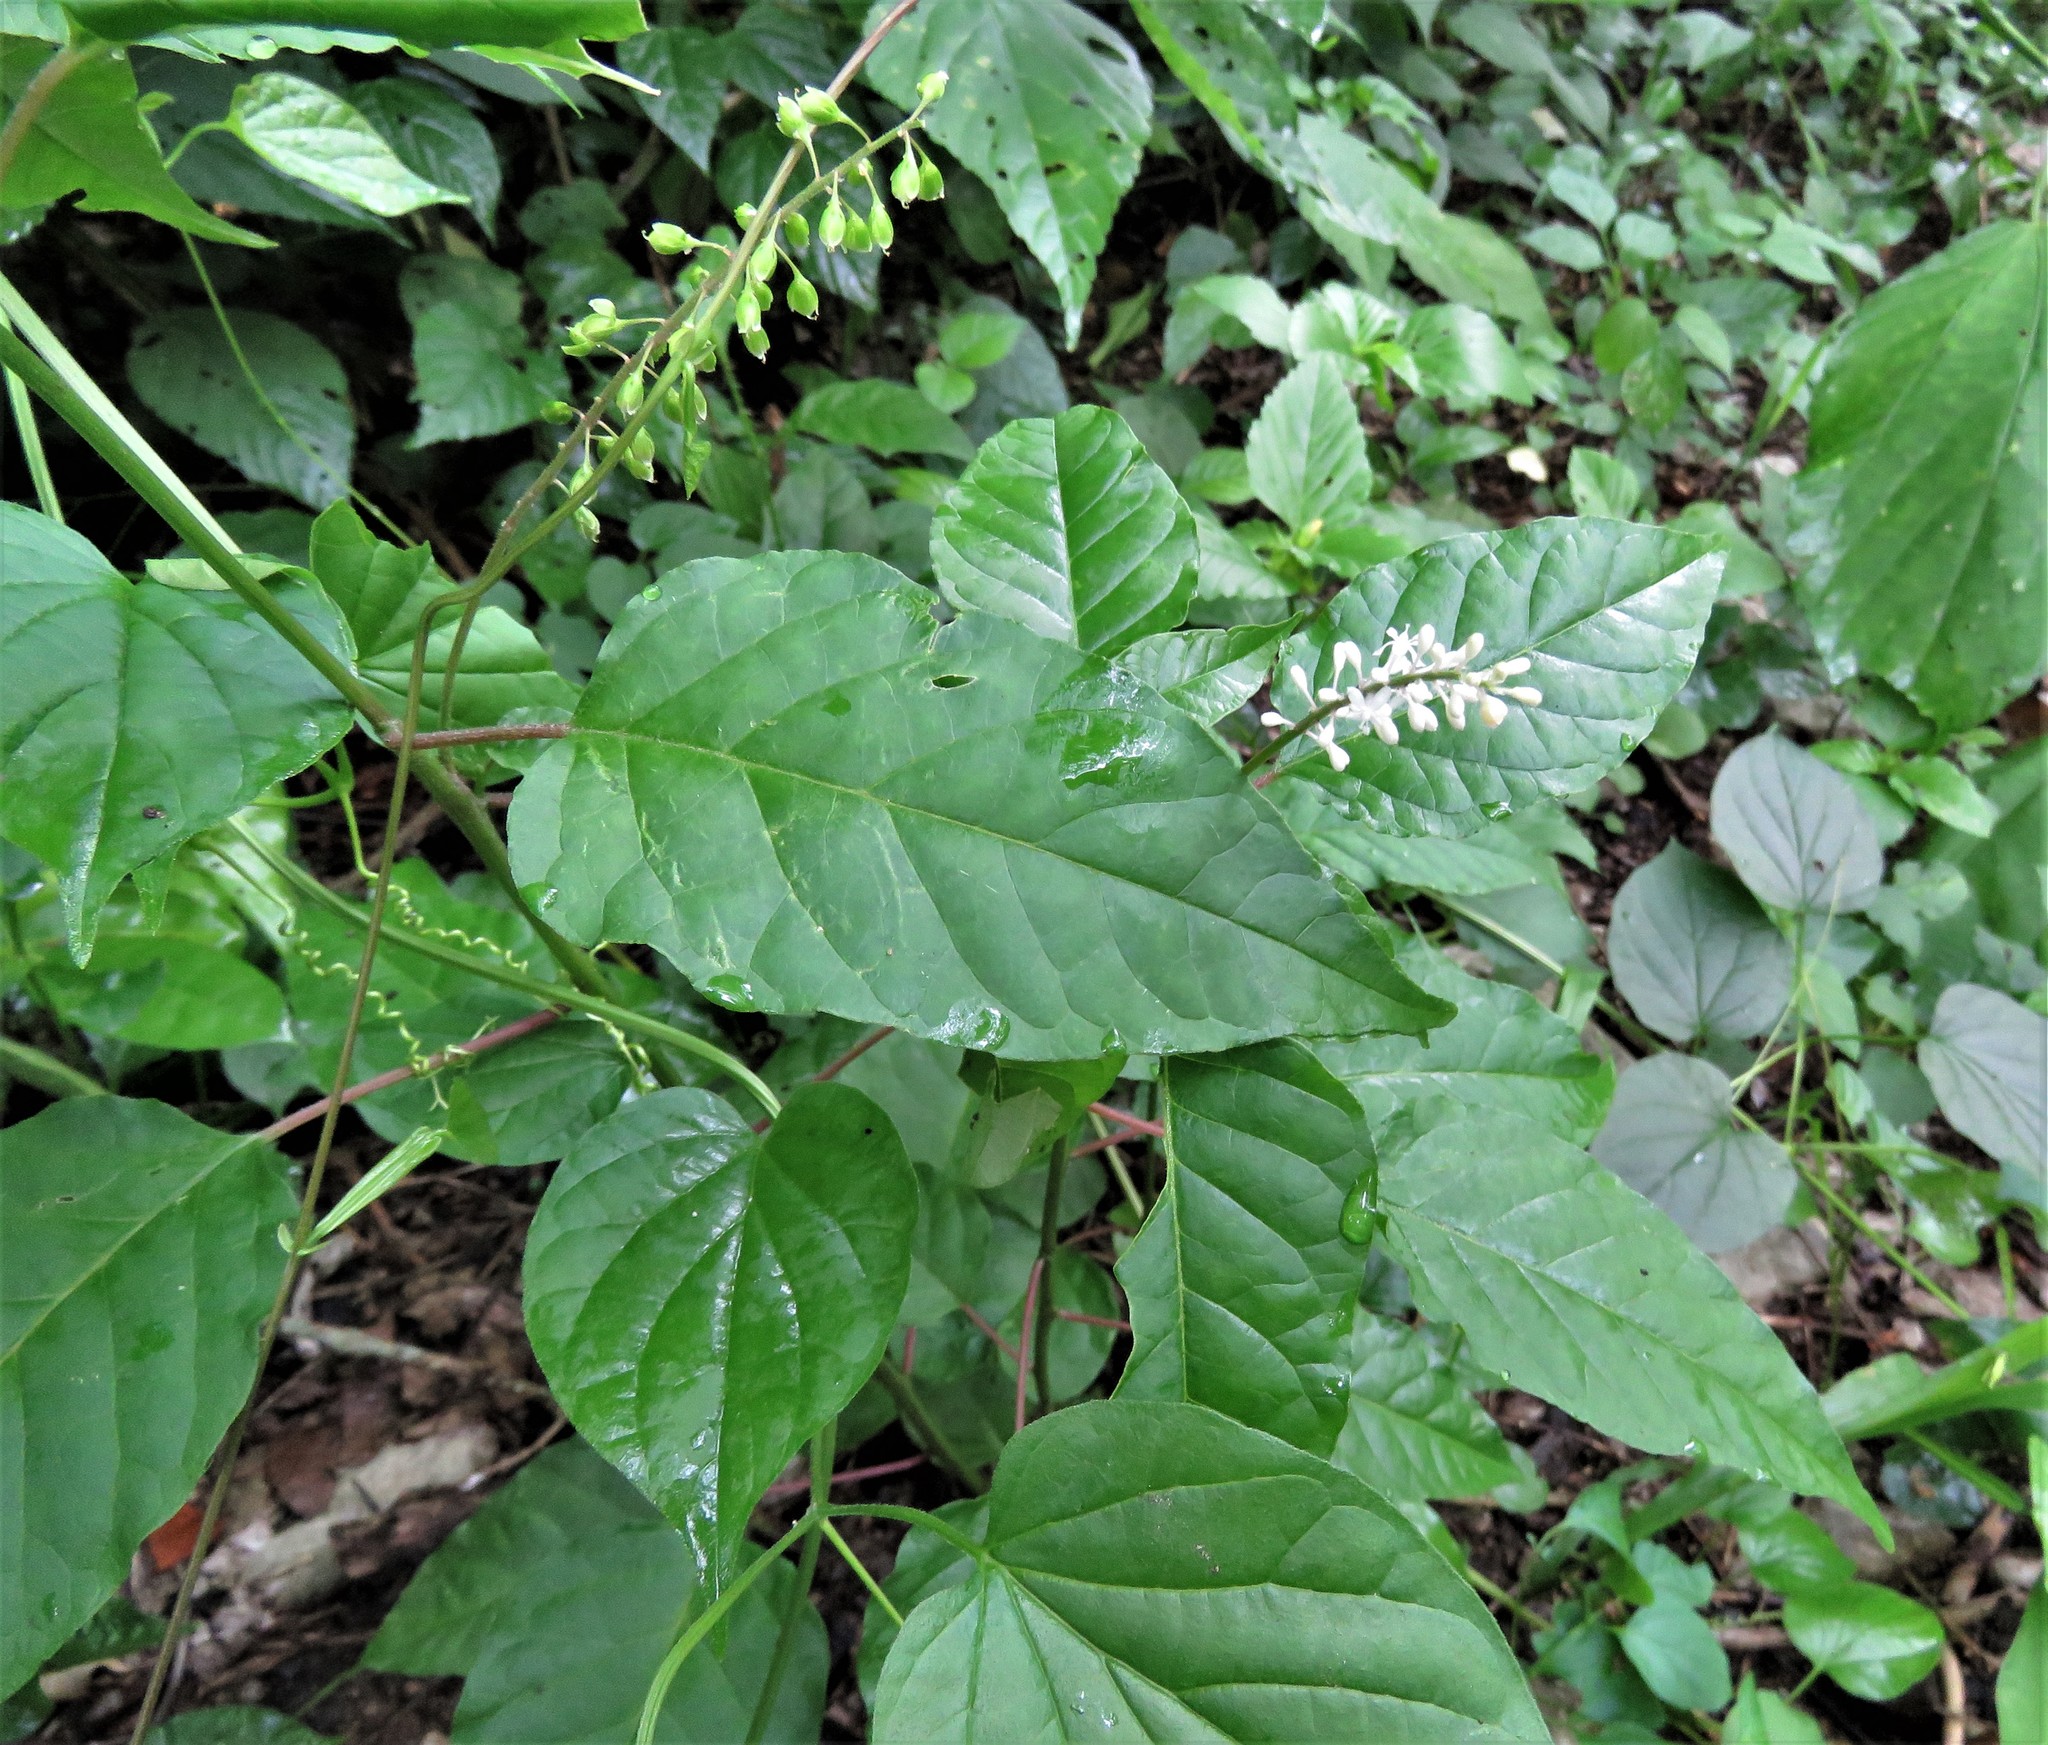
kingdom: Plantae
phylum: Tracheophyta
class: Magnoliopsida
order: Caryophyllales
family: Phytolaccaceae
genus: Rivina
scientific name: Rivina humilis
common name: Rougeplant
